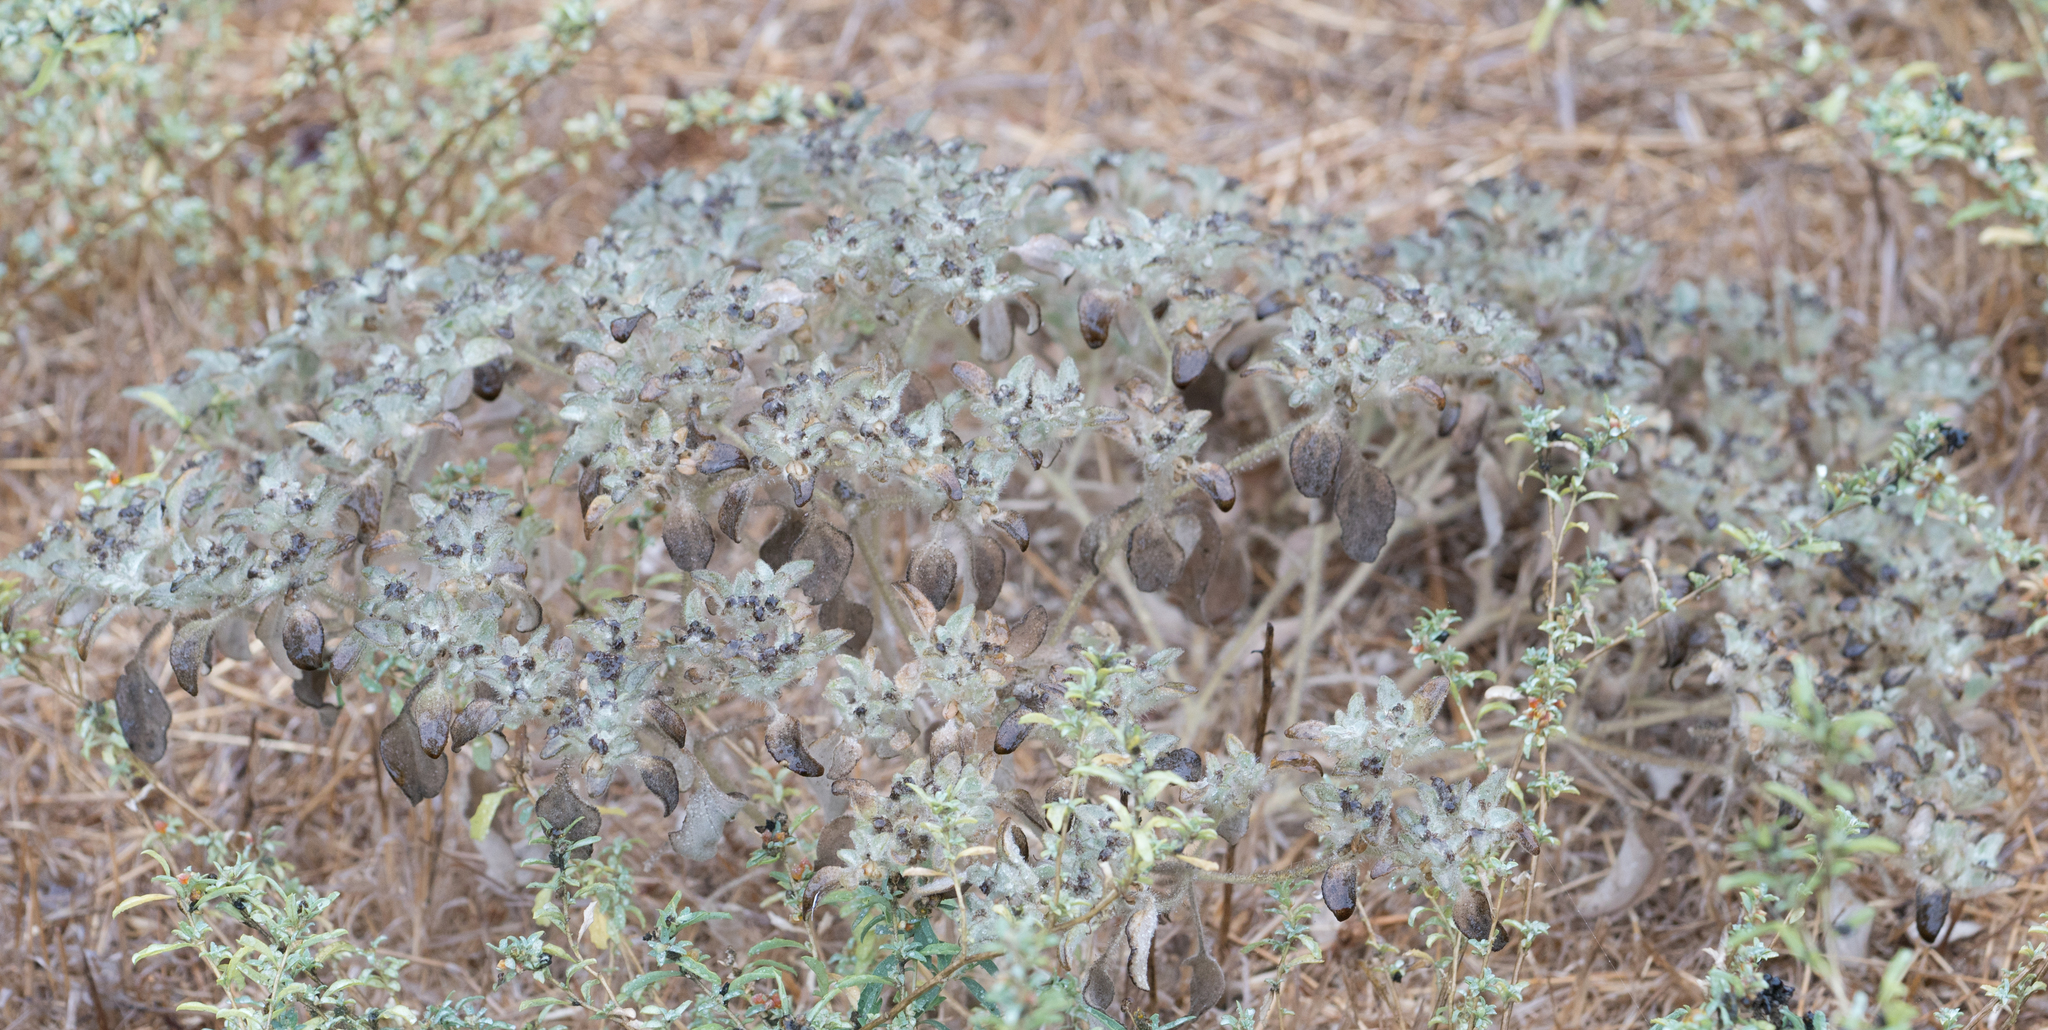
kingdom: Plantae
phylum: Tracheophyta
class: Magnoliopsida
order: Malpighiales
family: Euphorbiaceae
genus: Croton
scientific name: Croton setiger
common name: Dove weed
